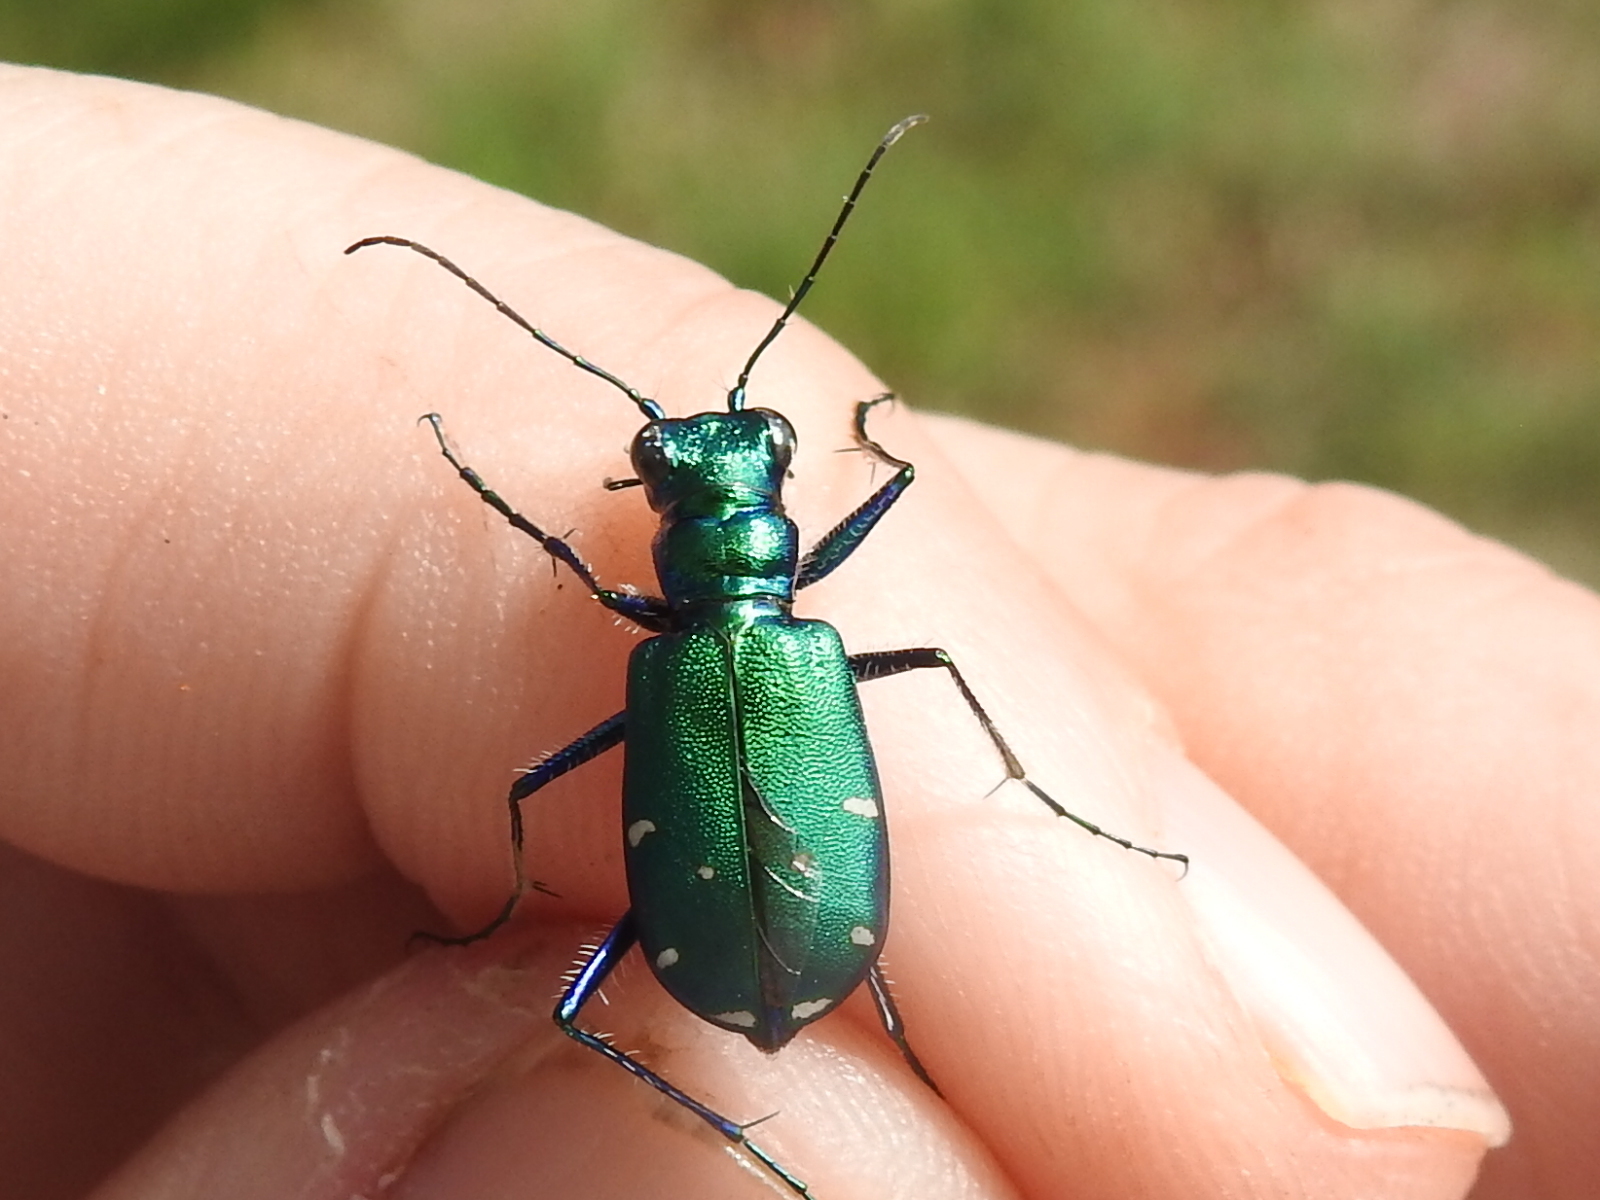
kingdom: Animalia
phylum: Arthropoda
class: Insecta
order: Coleoptera
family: Carabidae
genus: Cicindela
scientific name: Cicindela sexguttata
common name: Six-spotted tiger beetle
